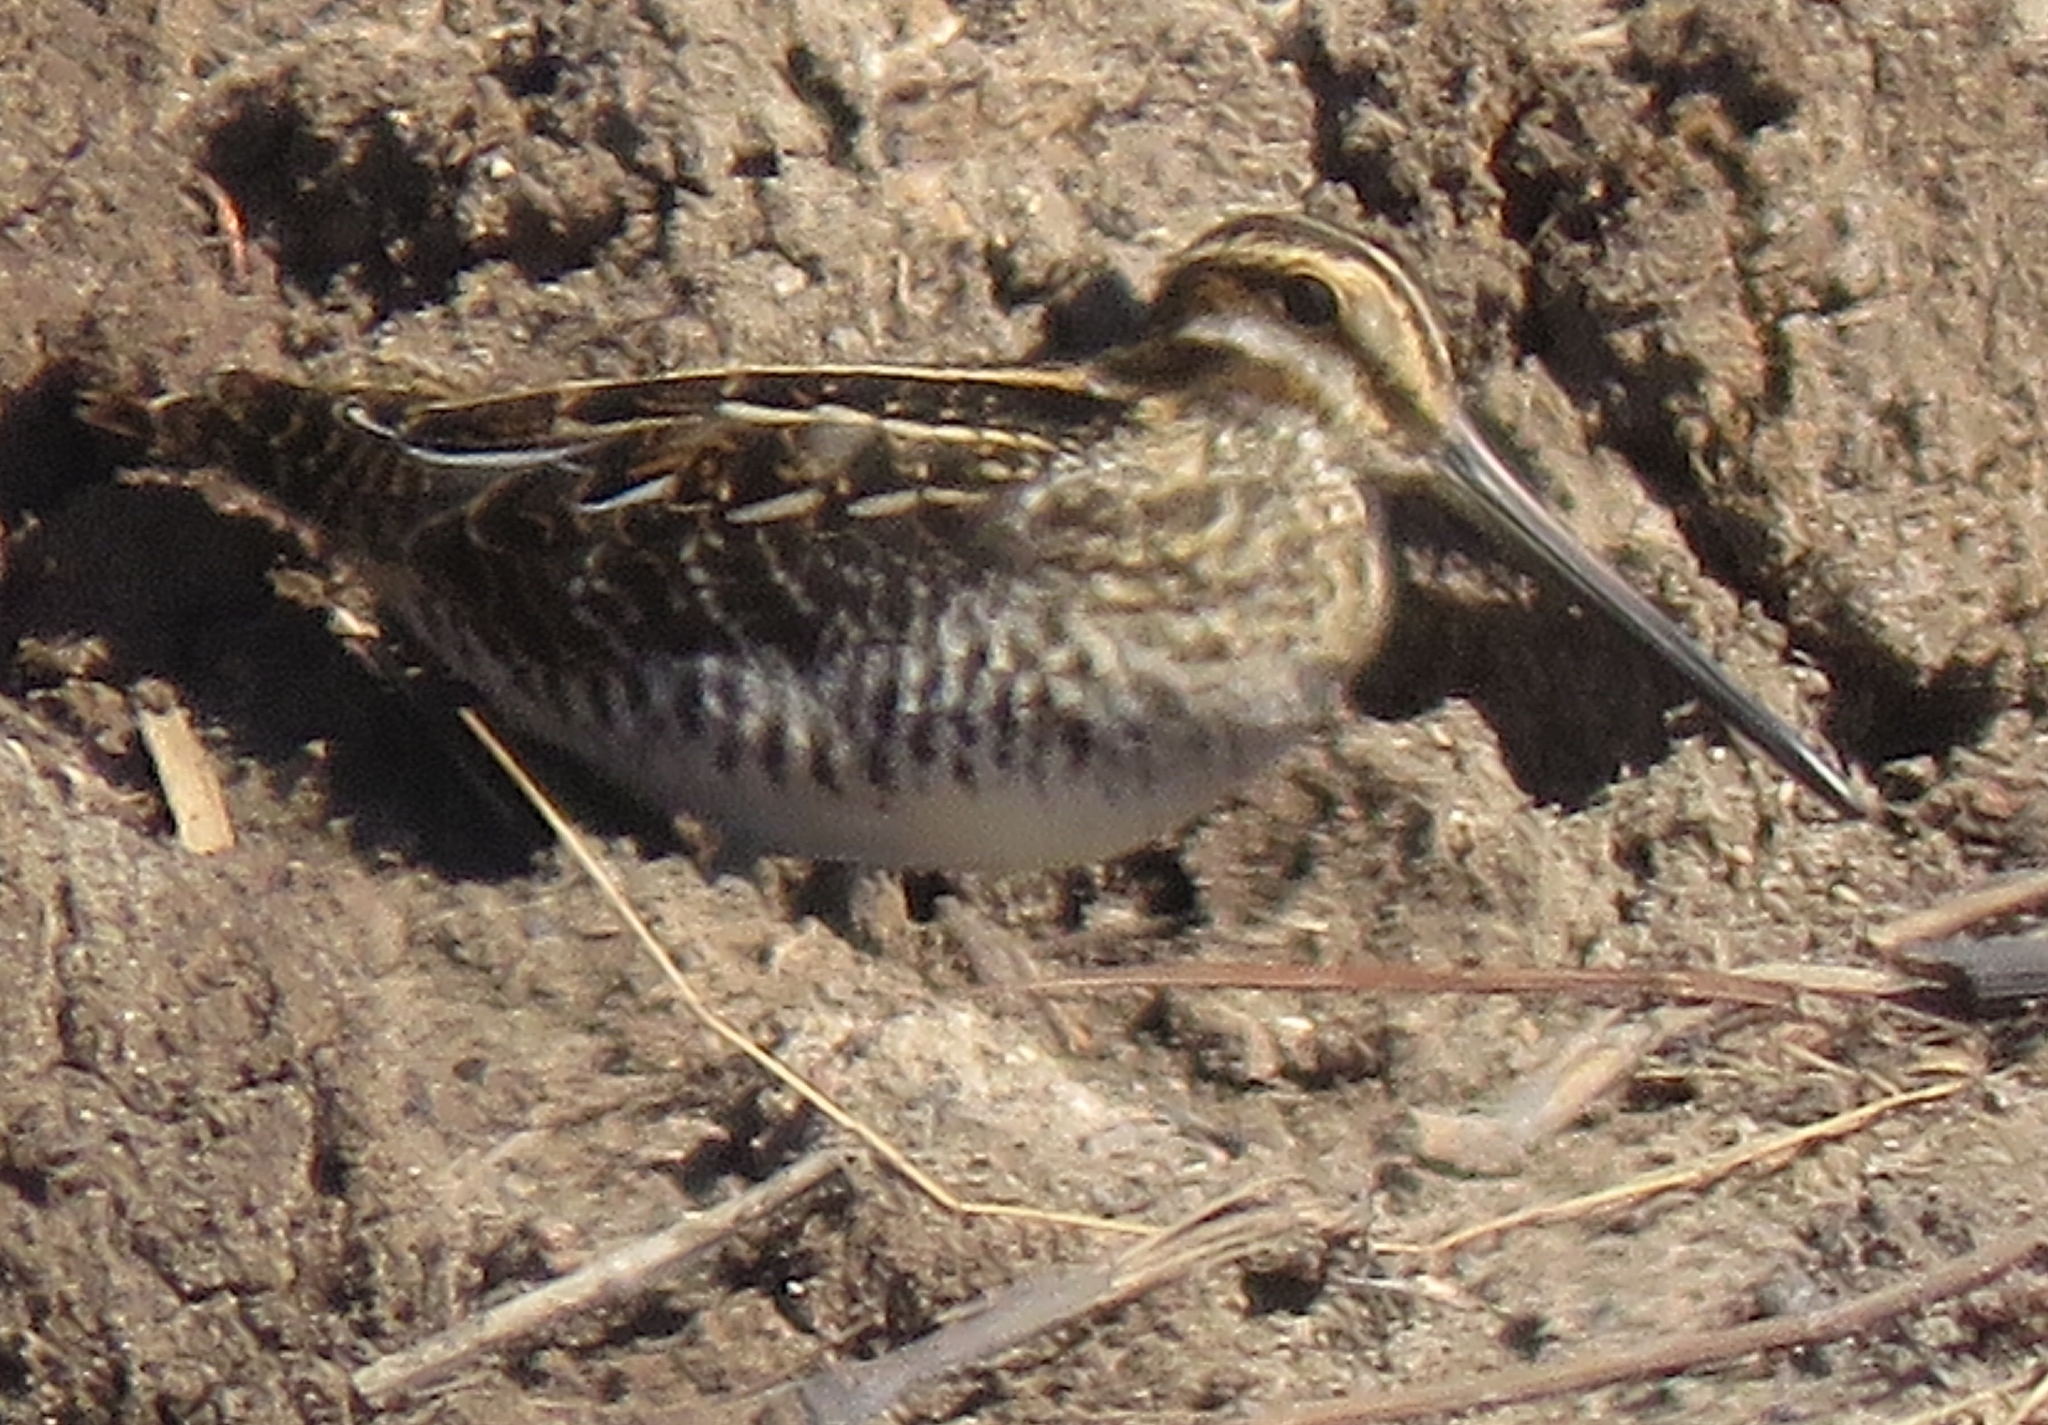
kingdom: Animalia
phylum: Chordata
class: Aves
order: Charadriiformes
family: Scolopacidae
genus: Gallinago
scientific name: Gallinago delicata
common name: Wilson's snipe
